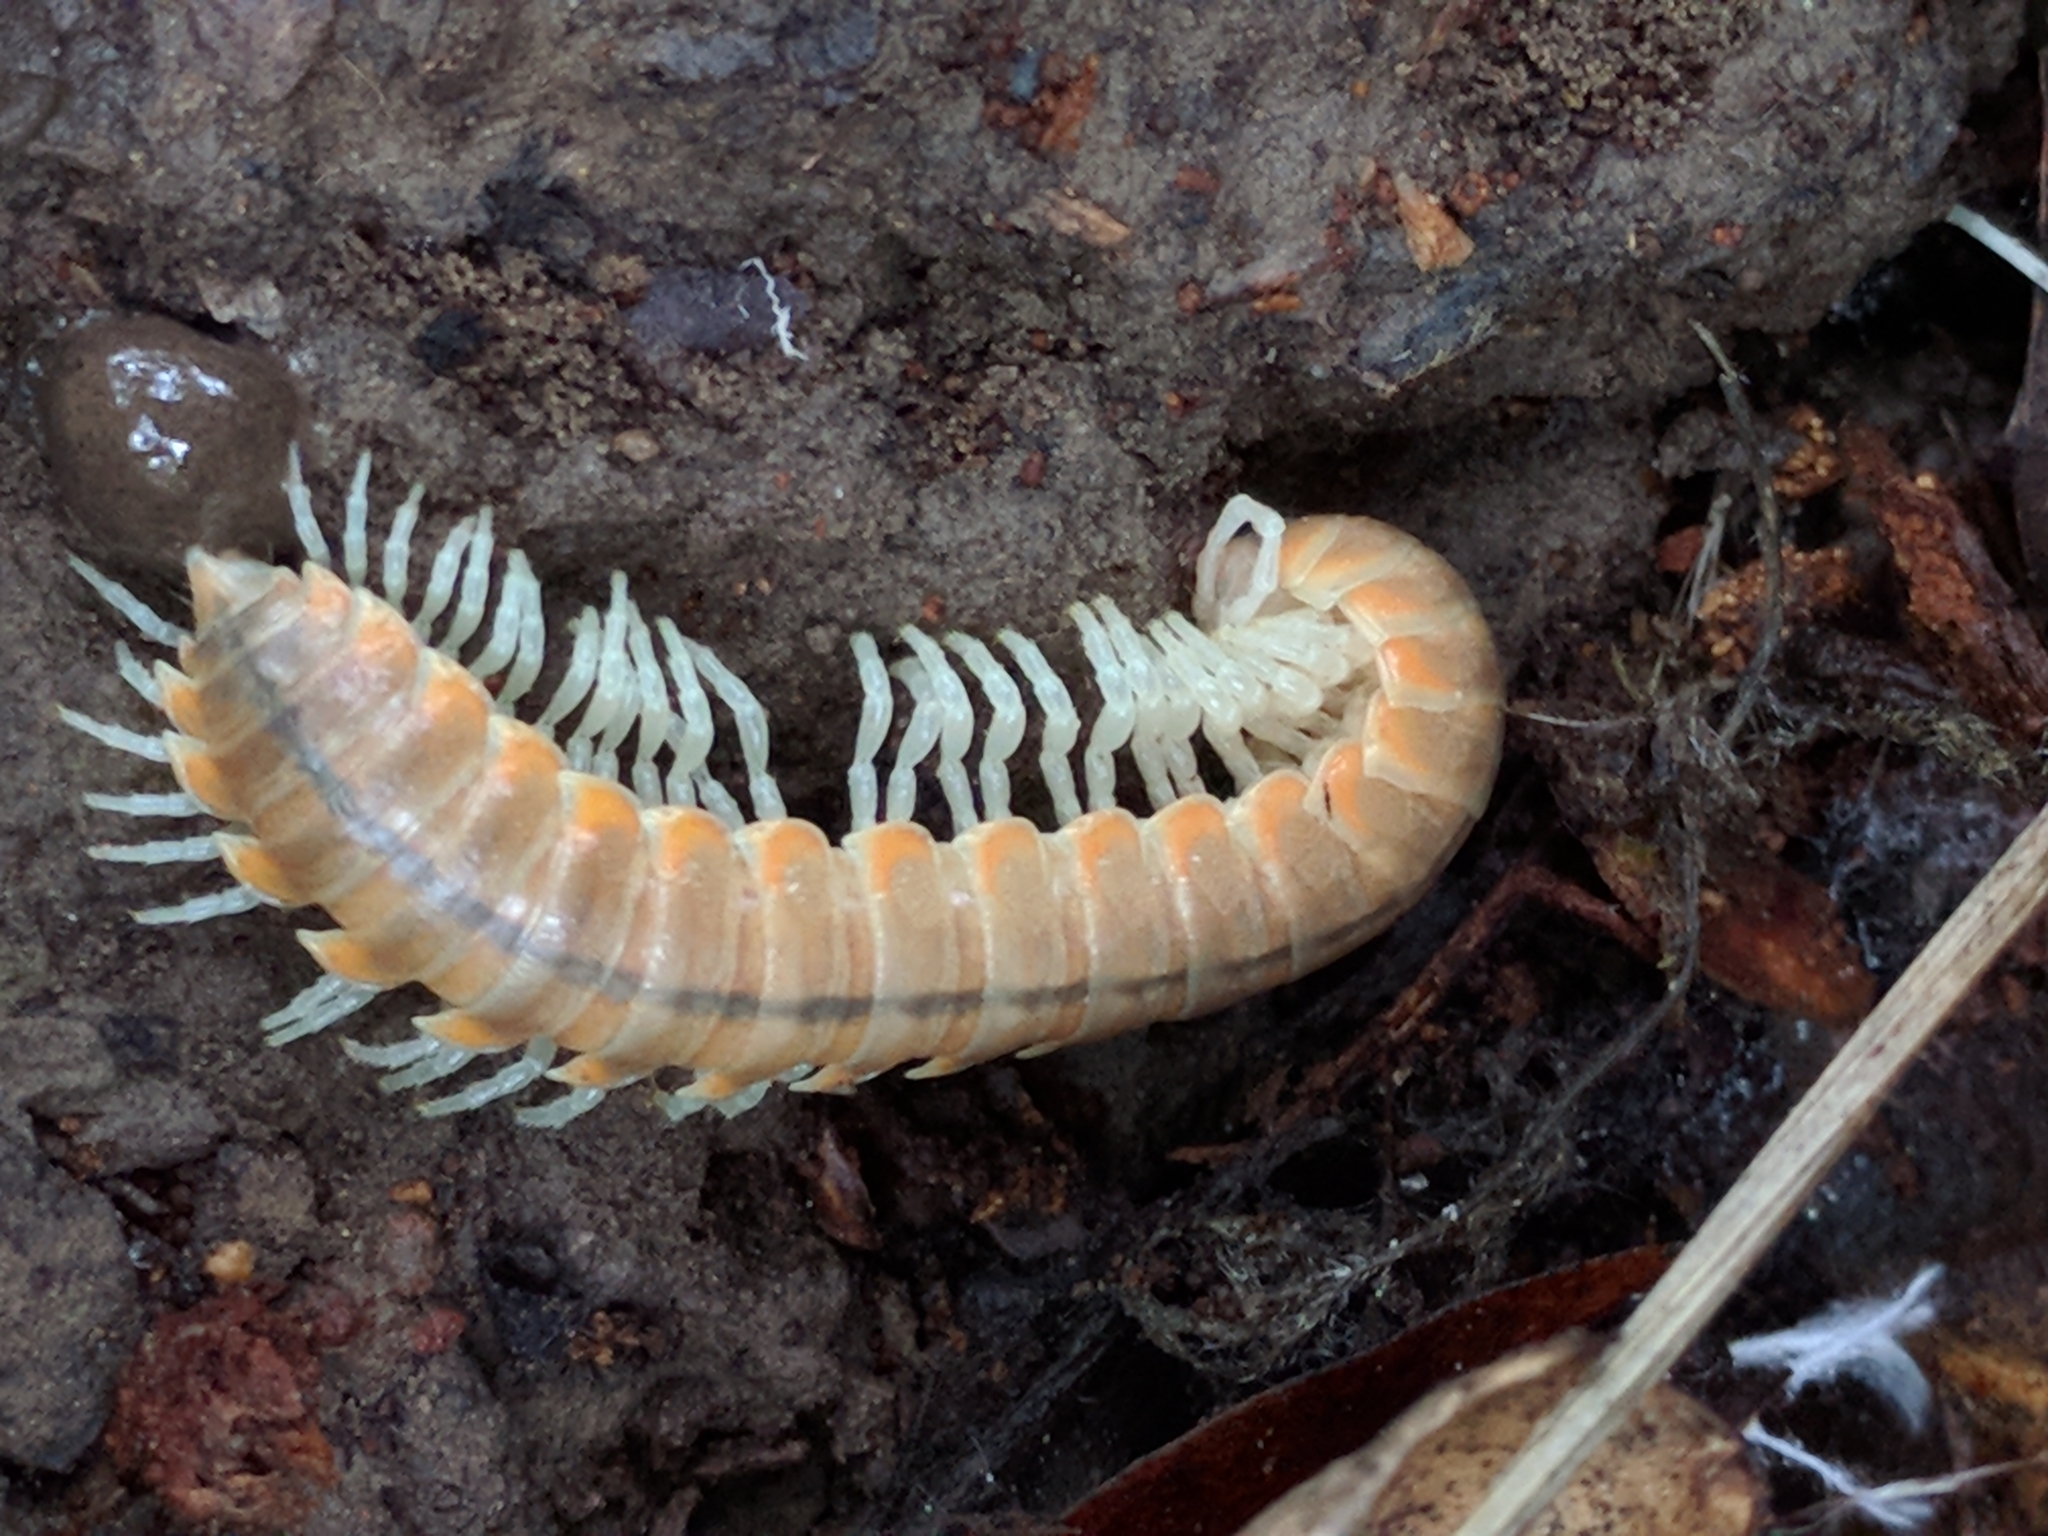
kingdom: Animalia
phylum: Arthropoda
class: Diplopoda
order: Polydesmida
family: Xystodesmidae
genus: Xystocheir
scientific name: Xystocheir dissecta
